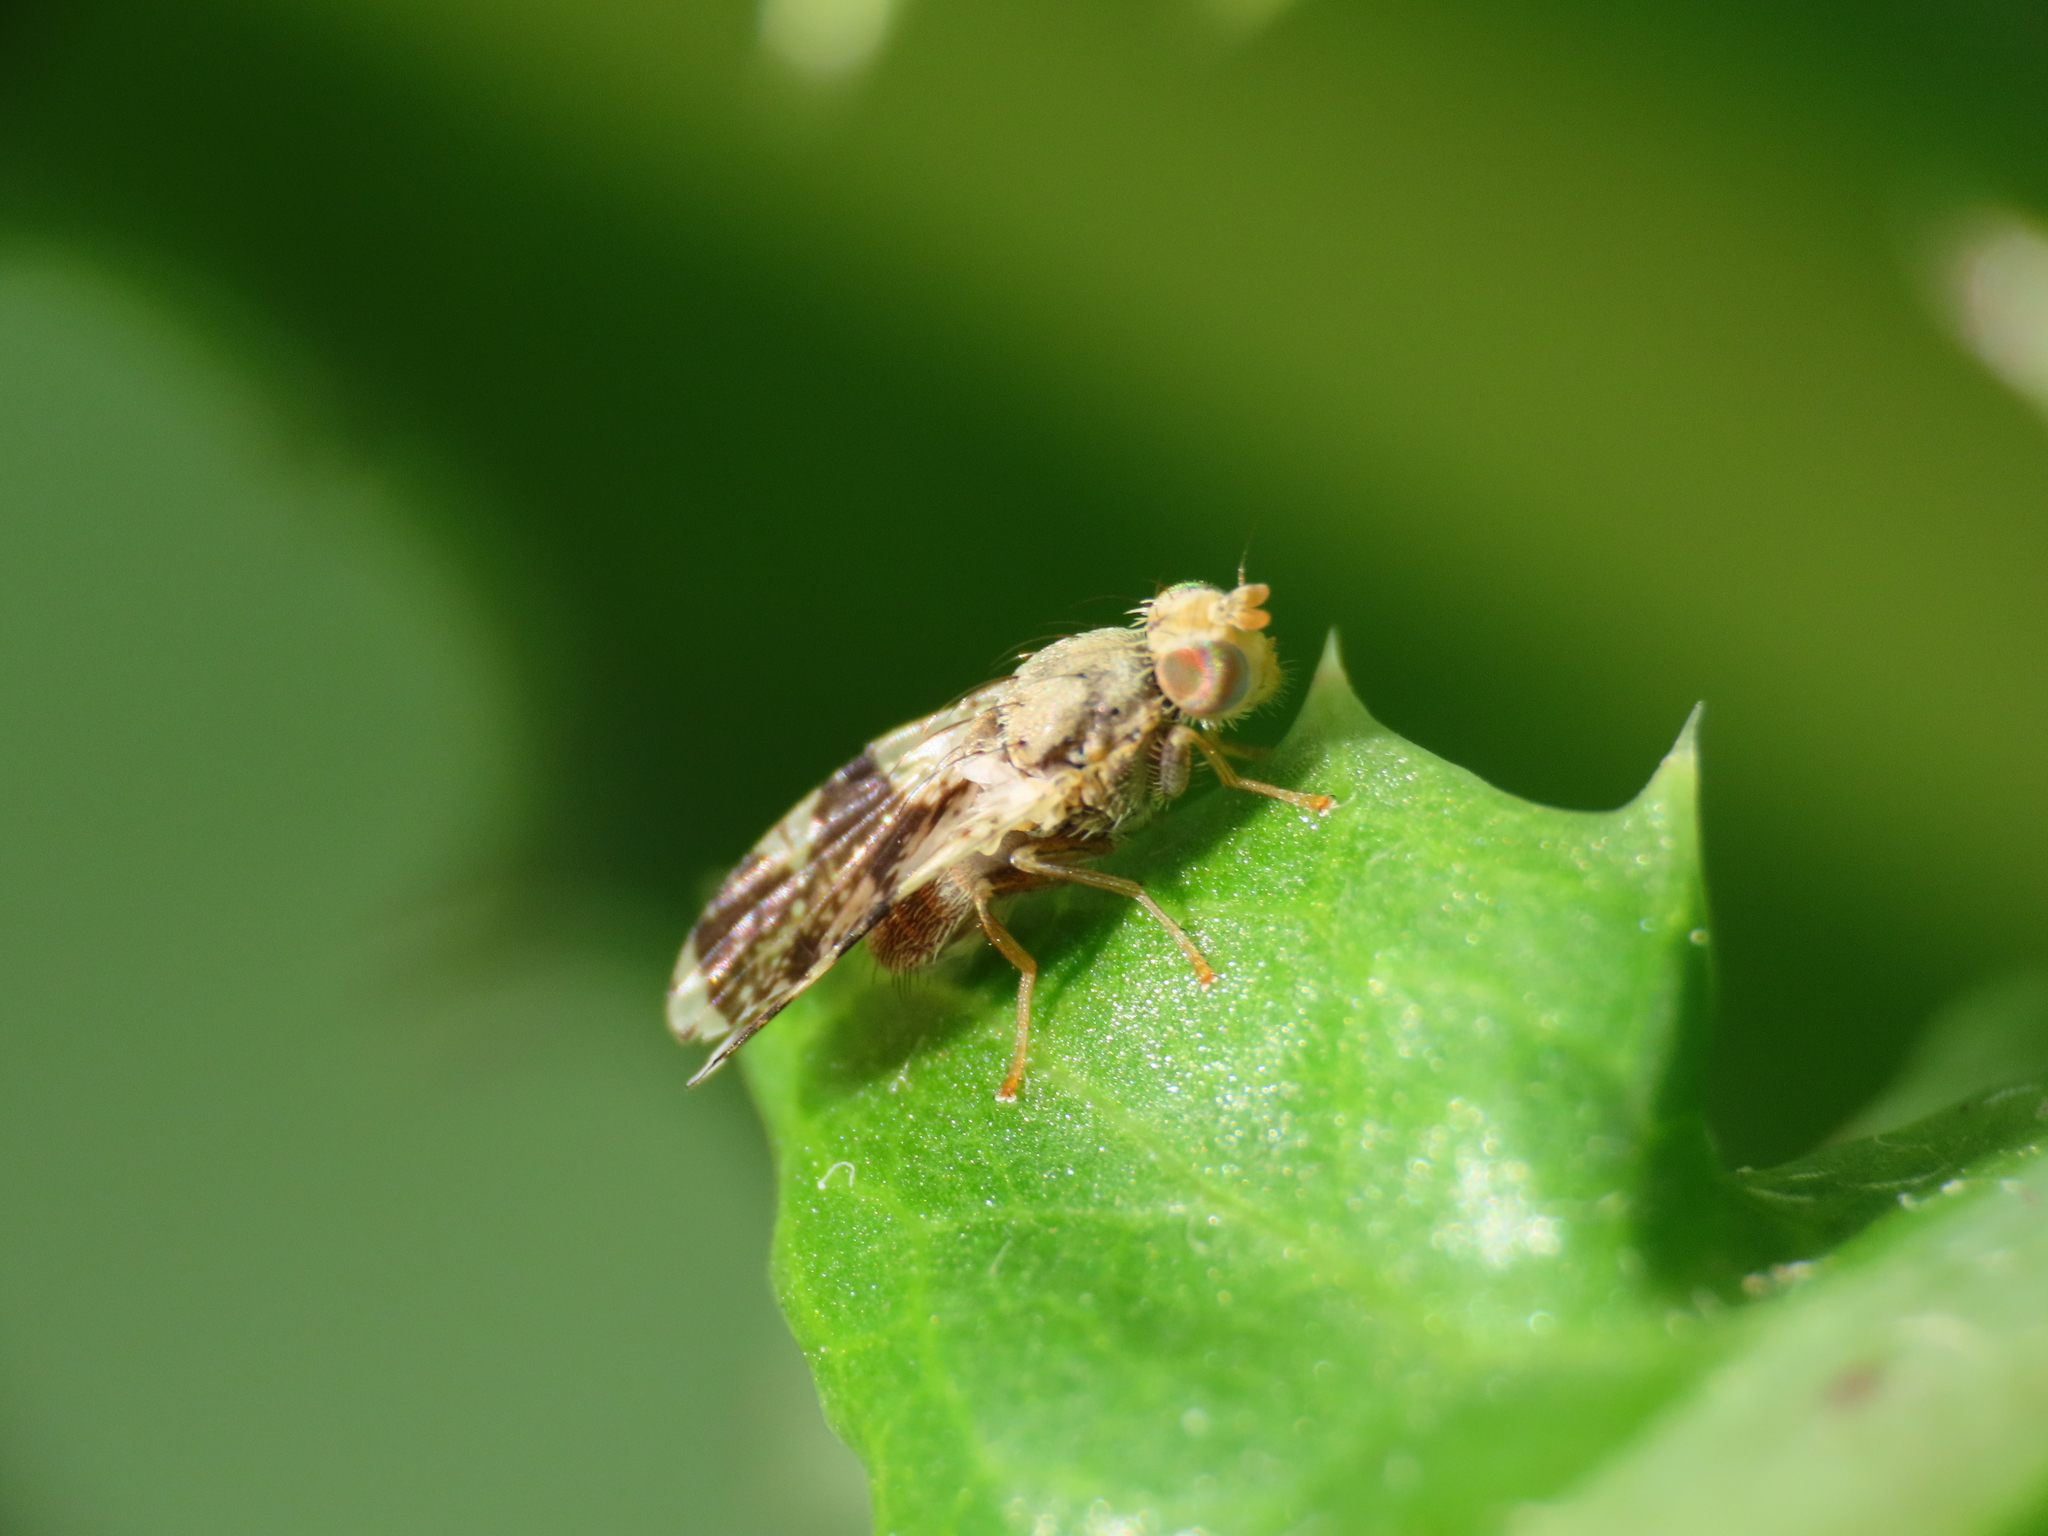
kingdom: Animalia
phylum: Arthropoda
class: Insecta
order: Diptera
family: Tephritidae
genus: Tephritis
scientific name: Tephritis formosa
